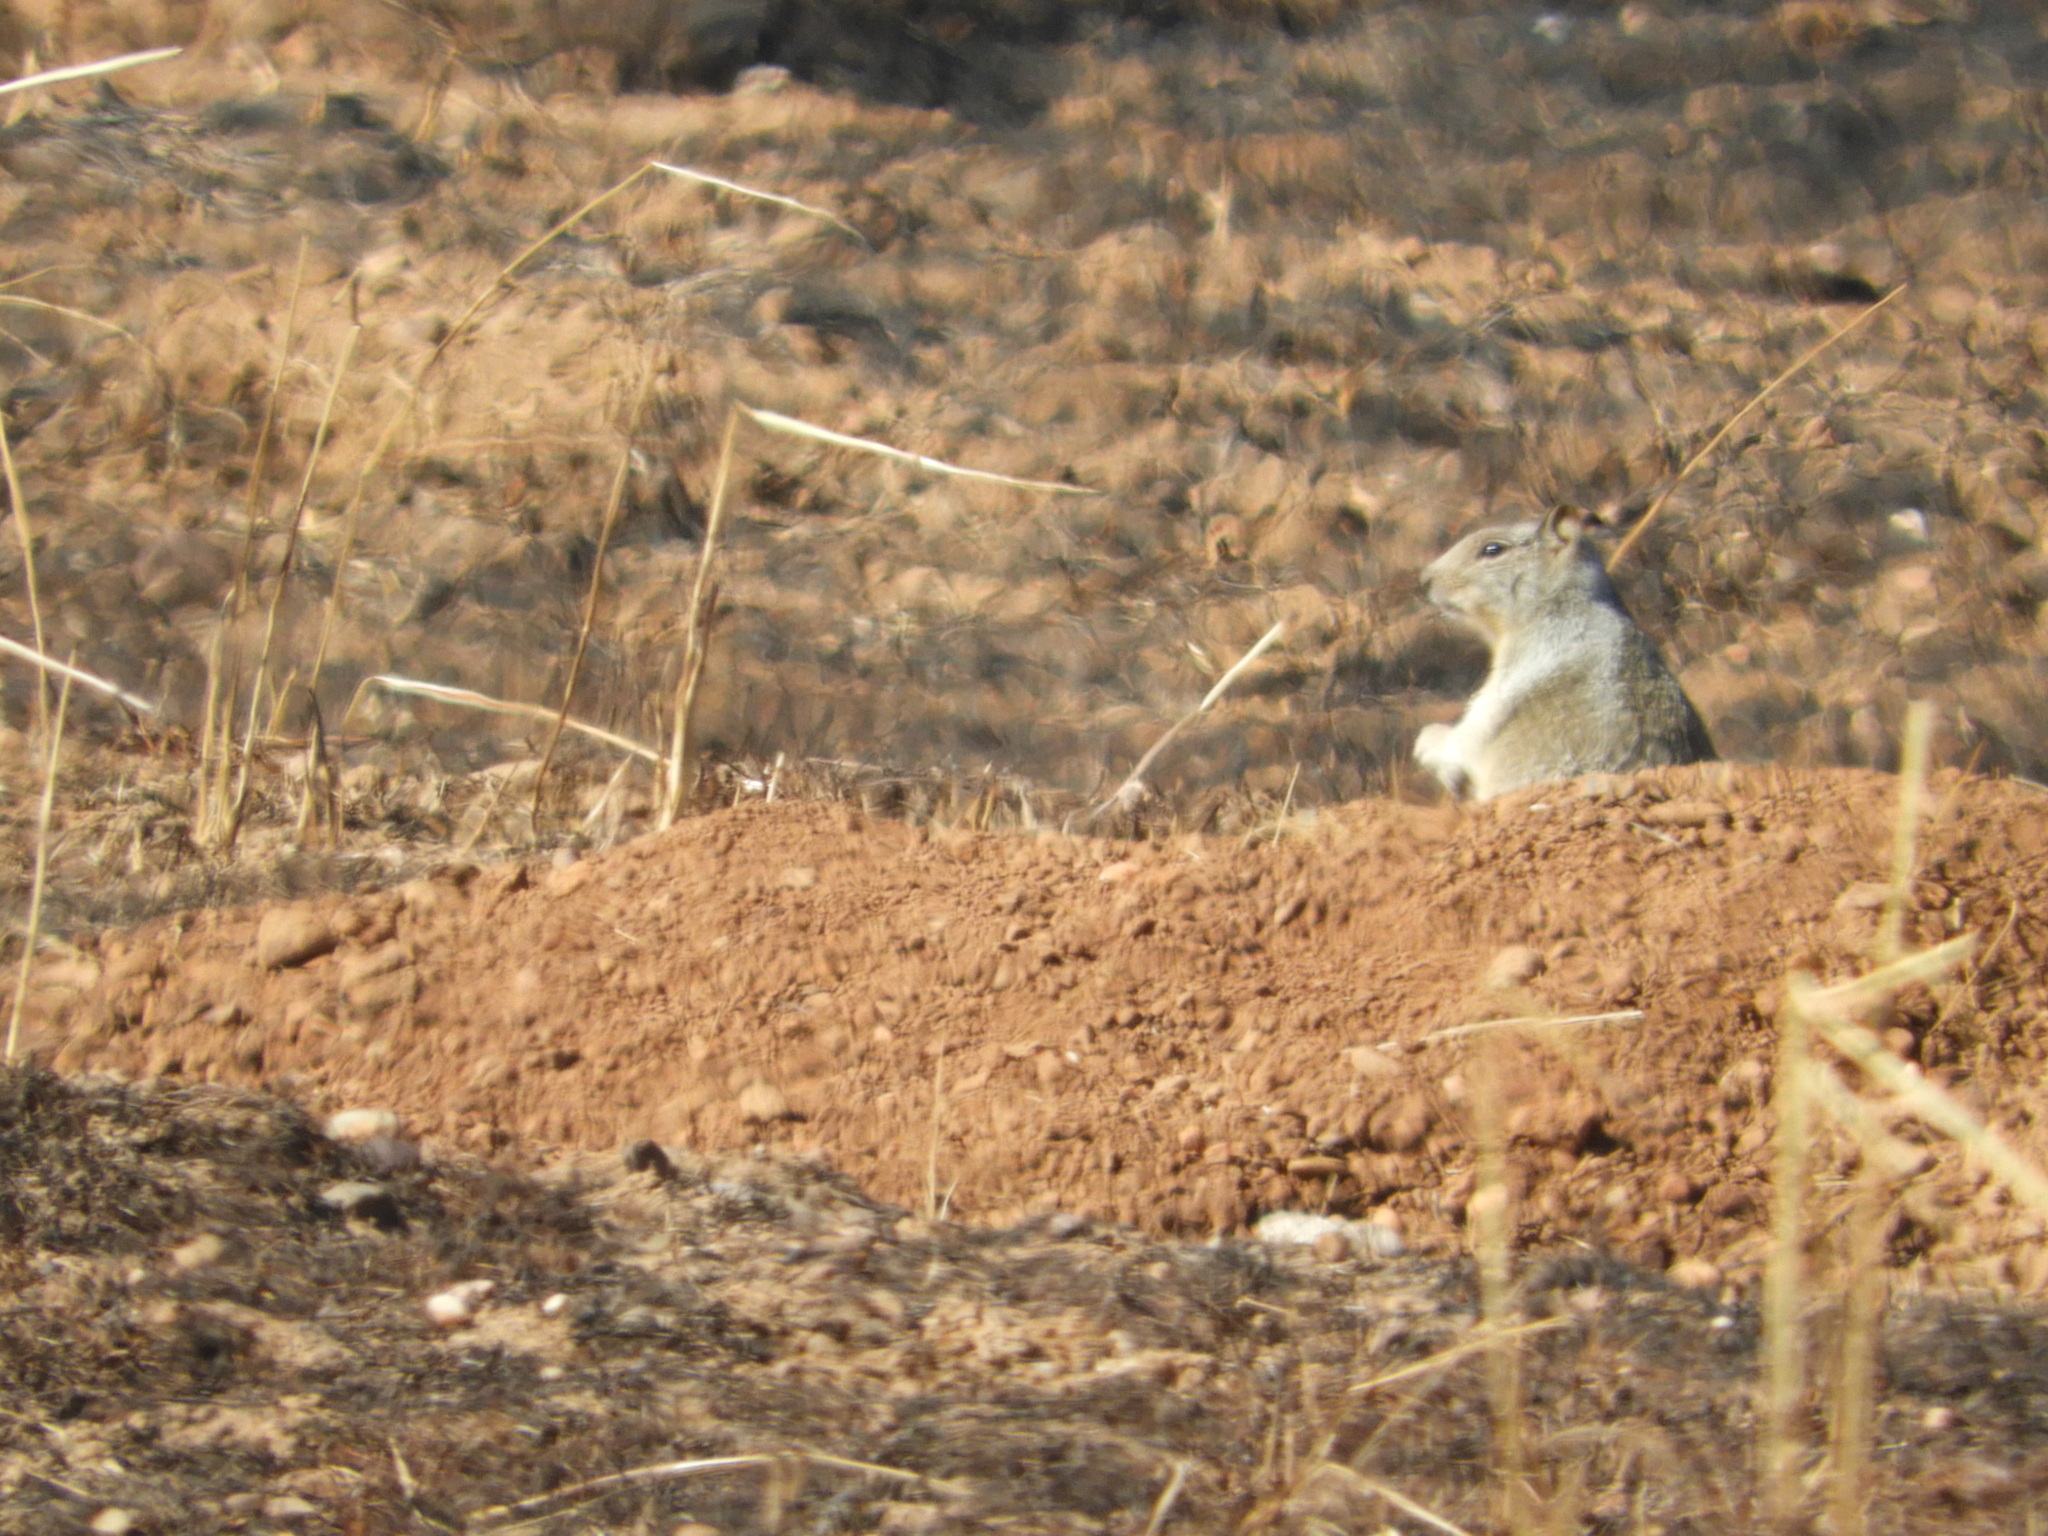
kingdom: Animalia
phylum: Chordata
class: Mammalia
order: Rodentia
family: Sciuridae
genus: Otospermophilus
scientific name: Otospermophilus beecheyi
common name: California ground squirrel
